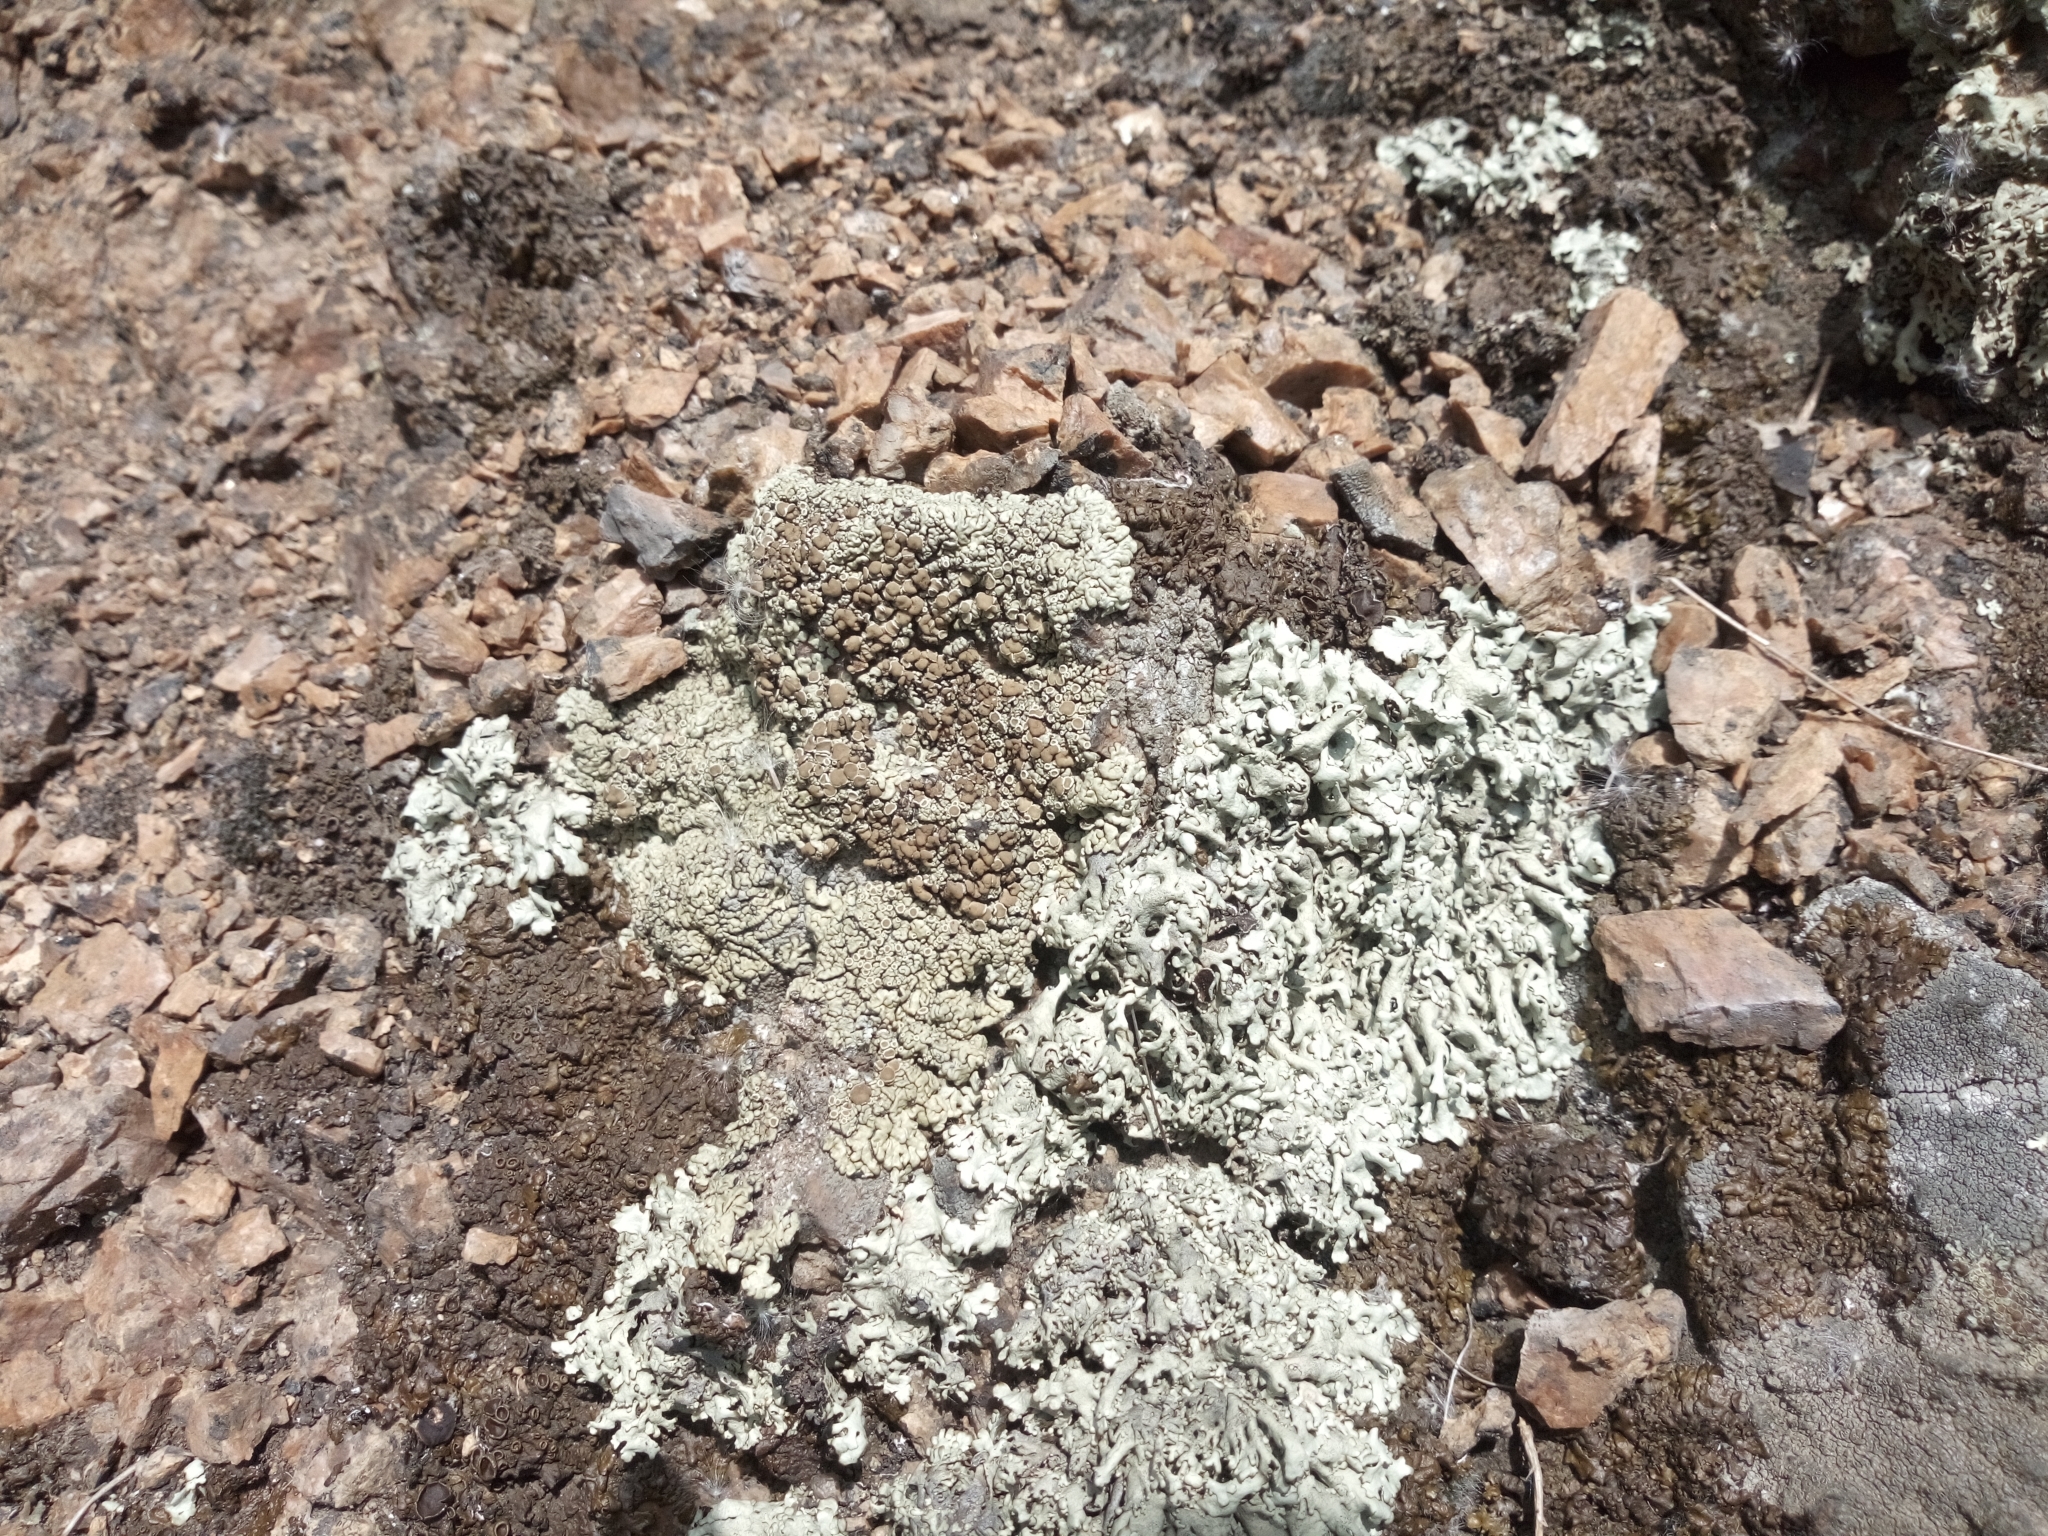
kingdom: Fungi
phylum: Ascomycota
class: Lecanoromycetes
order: Lecanorales
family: Parmeliaceae
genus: Xanthoparmelia
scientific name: Xanthoparmelia conspersa
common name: Peppered rock shield
